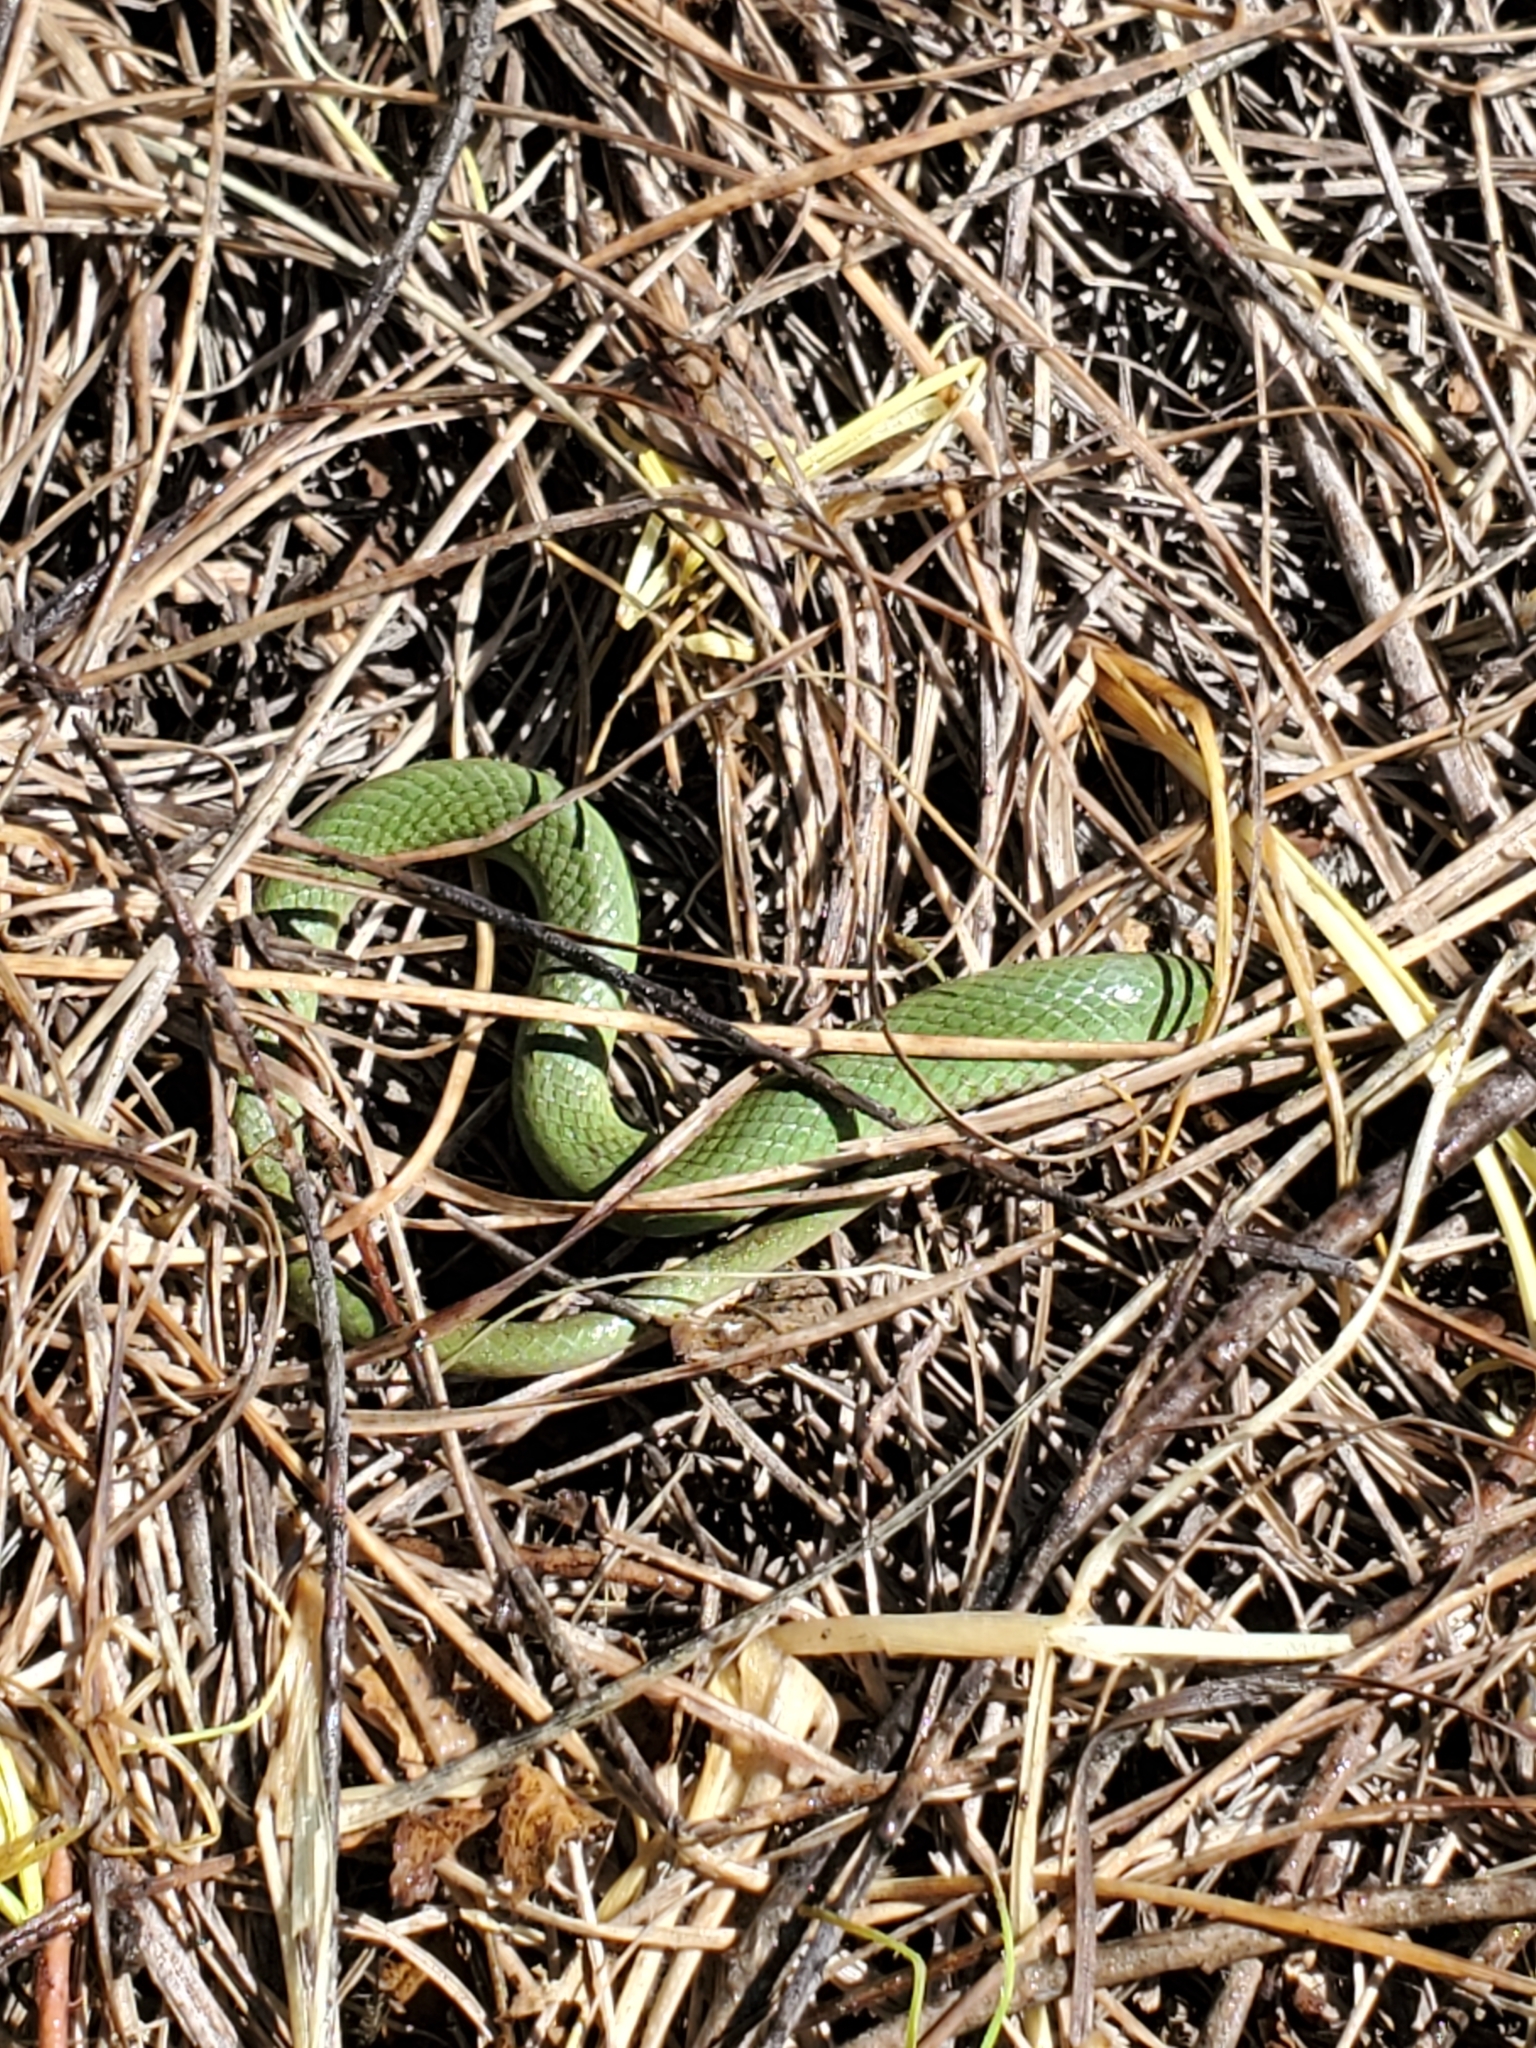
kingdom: Animalia
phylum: Chordata
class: Squamata
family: Colubridae
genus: Opheodrys
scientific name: Opheodrys vernalis
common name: Smooth green snake
